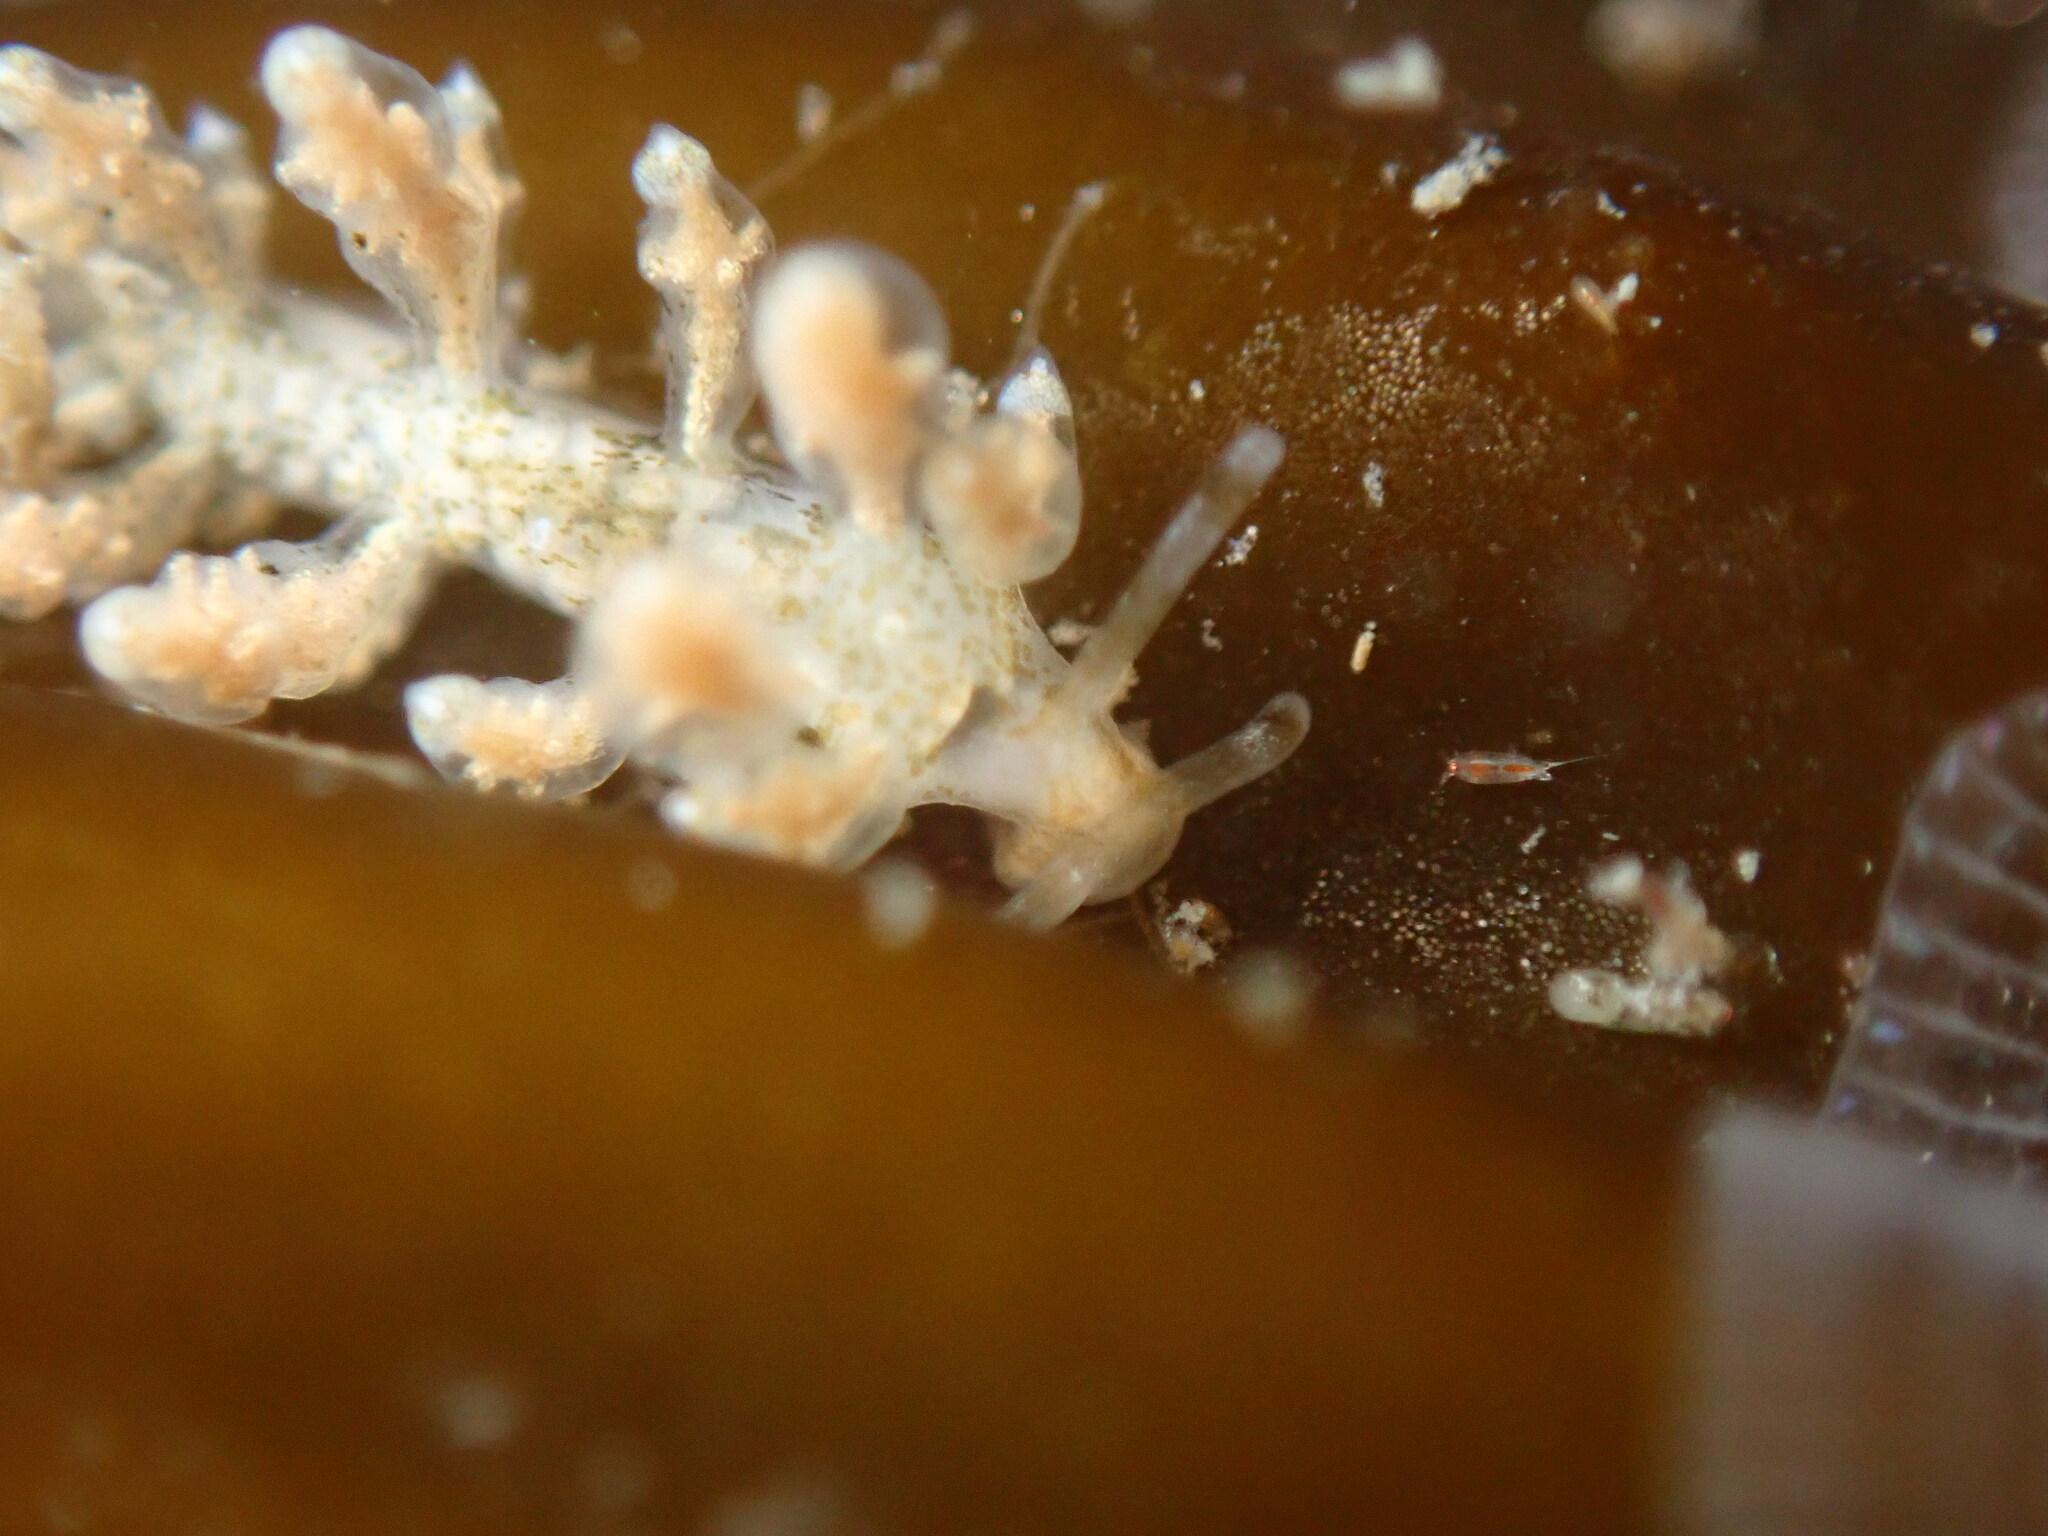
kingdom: Animalia
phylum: Mollusca
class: Gastropoda
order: Nudibranchia
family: Eubranchidae
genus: Eubranchus
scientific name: Eubranchus rustyus
